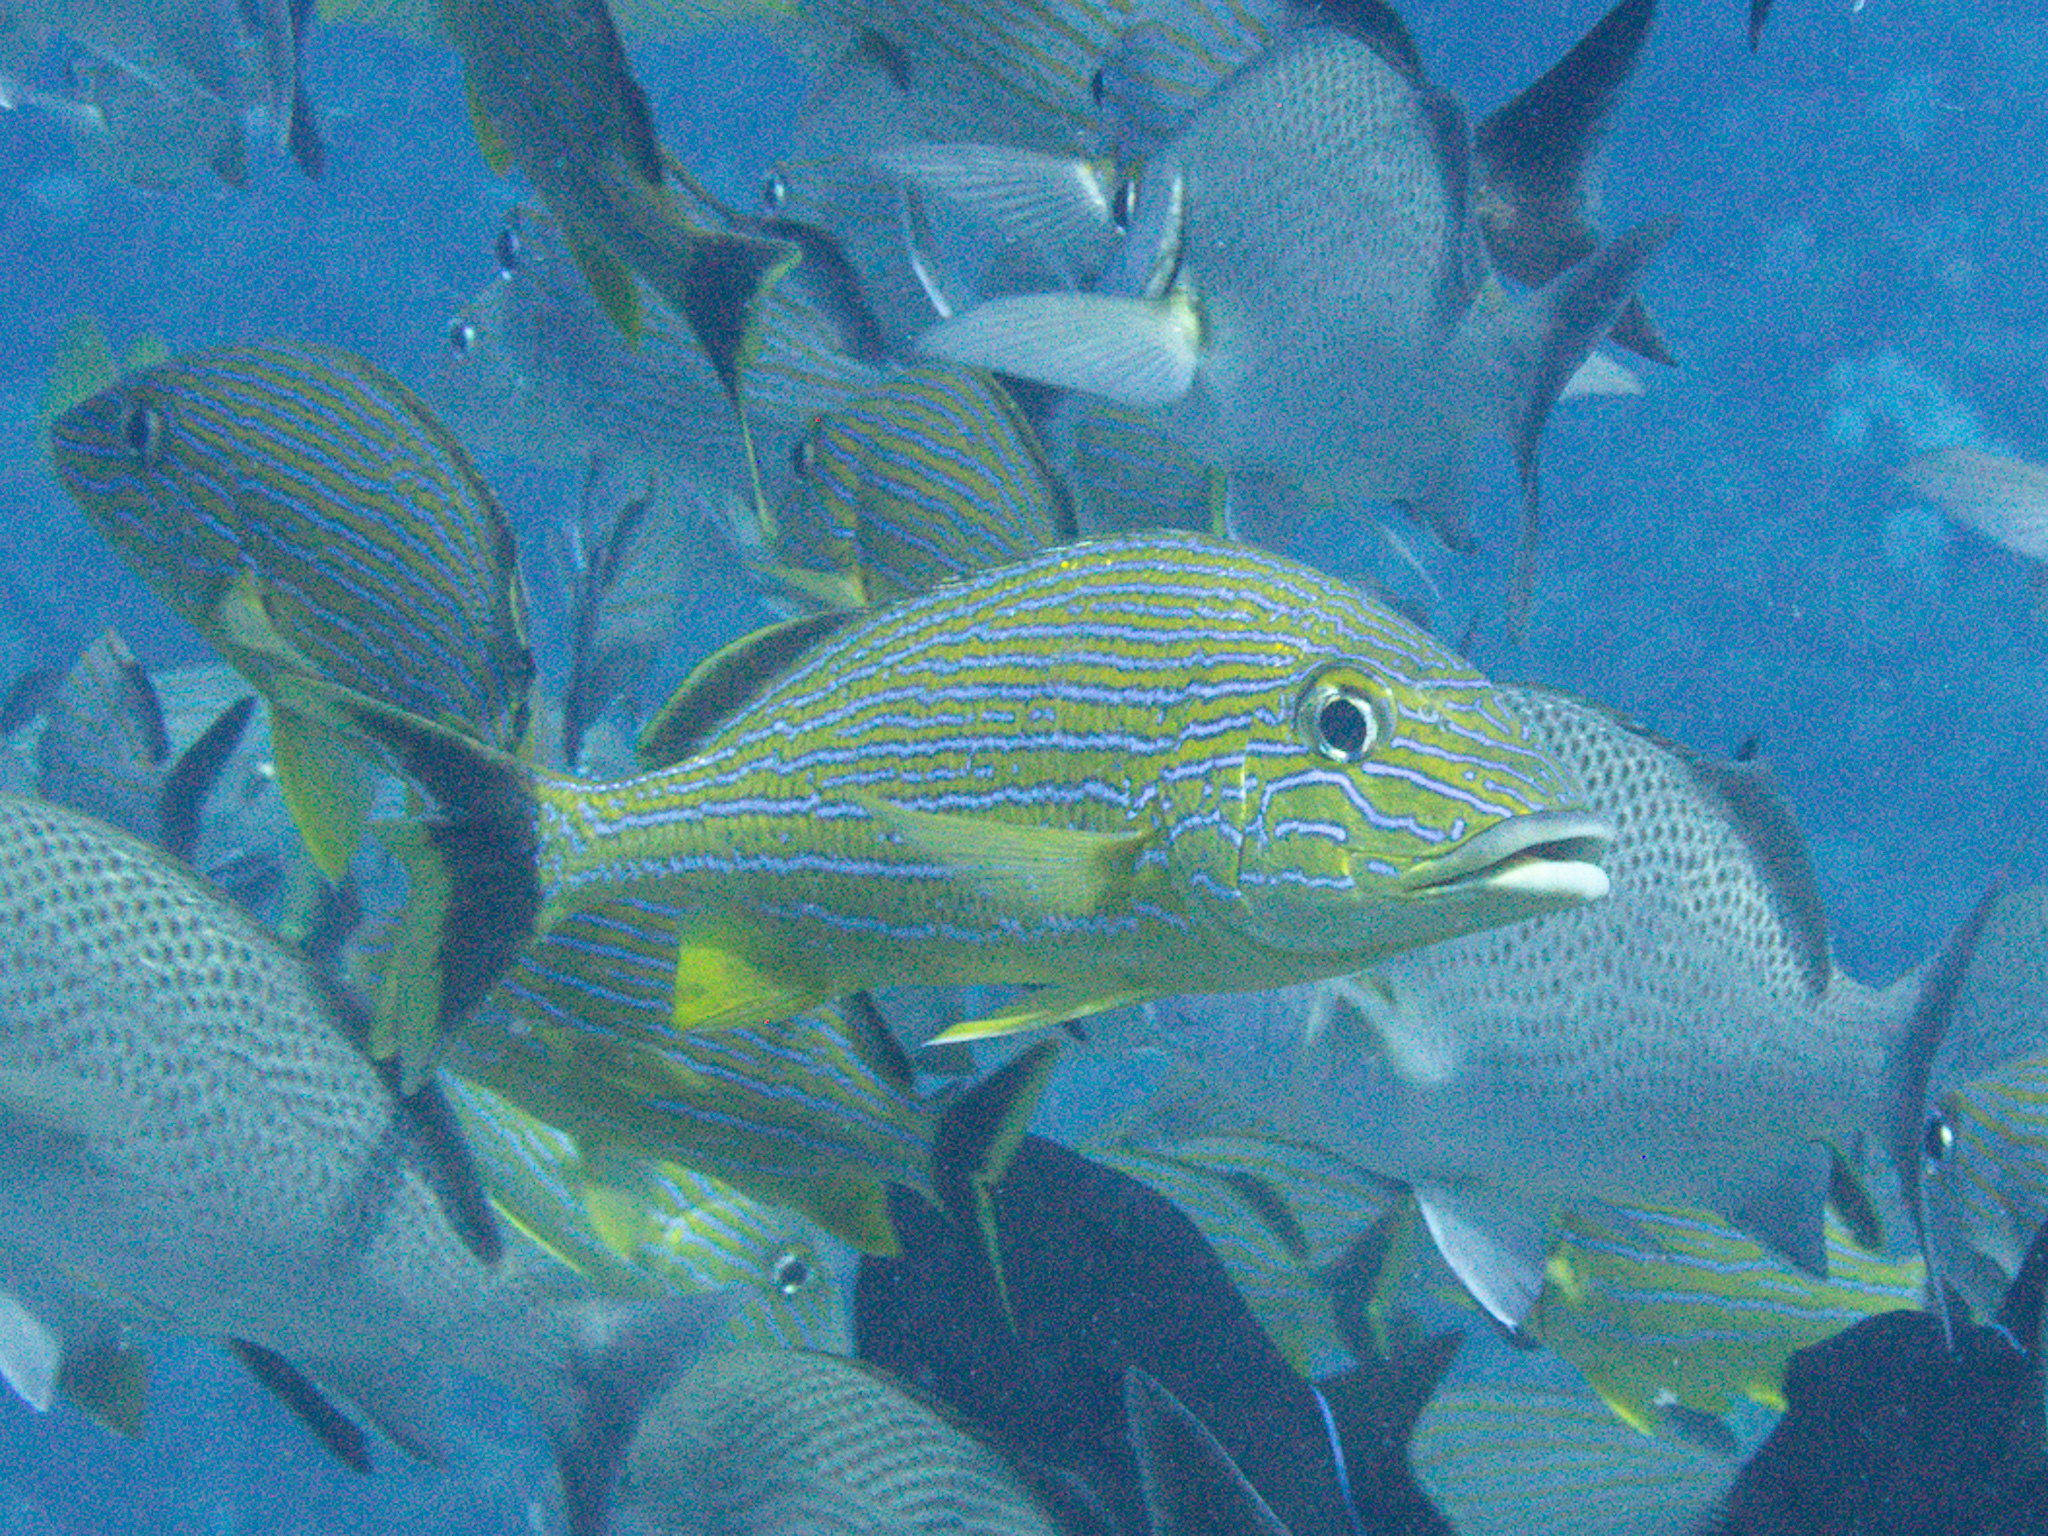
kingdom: Animalia
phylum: Chordata
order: Perciformes
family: Haemulidae
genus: Haemulon
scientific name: Haemulon sciurus
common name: Bluestriped grunt
